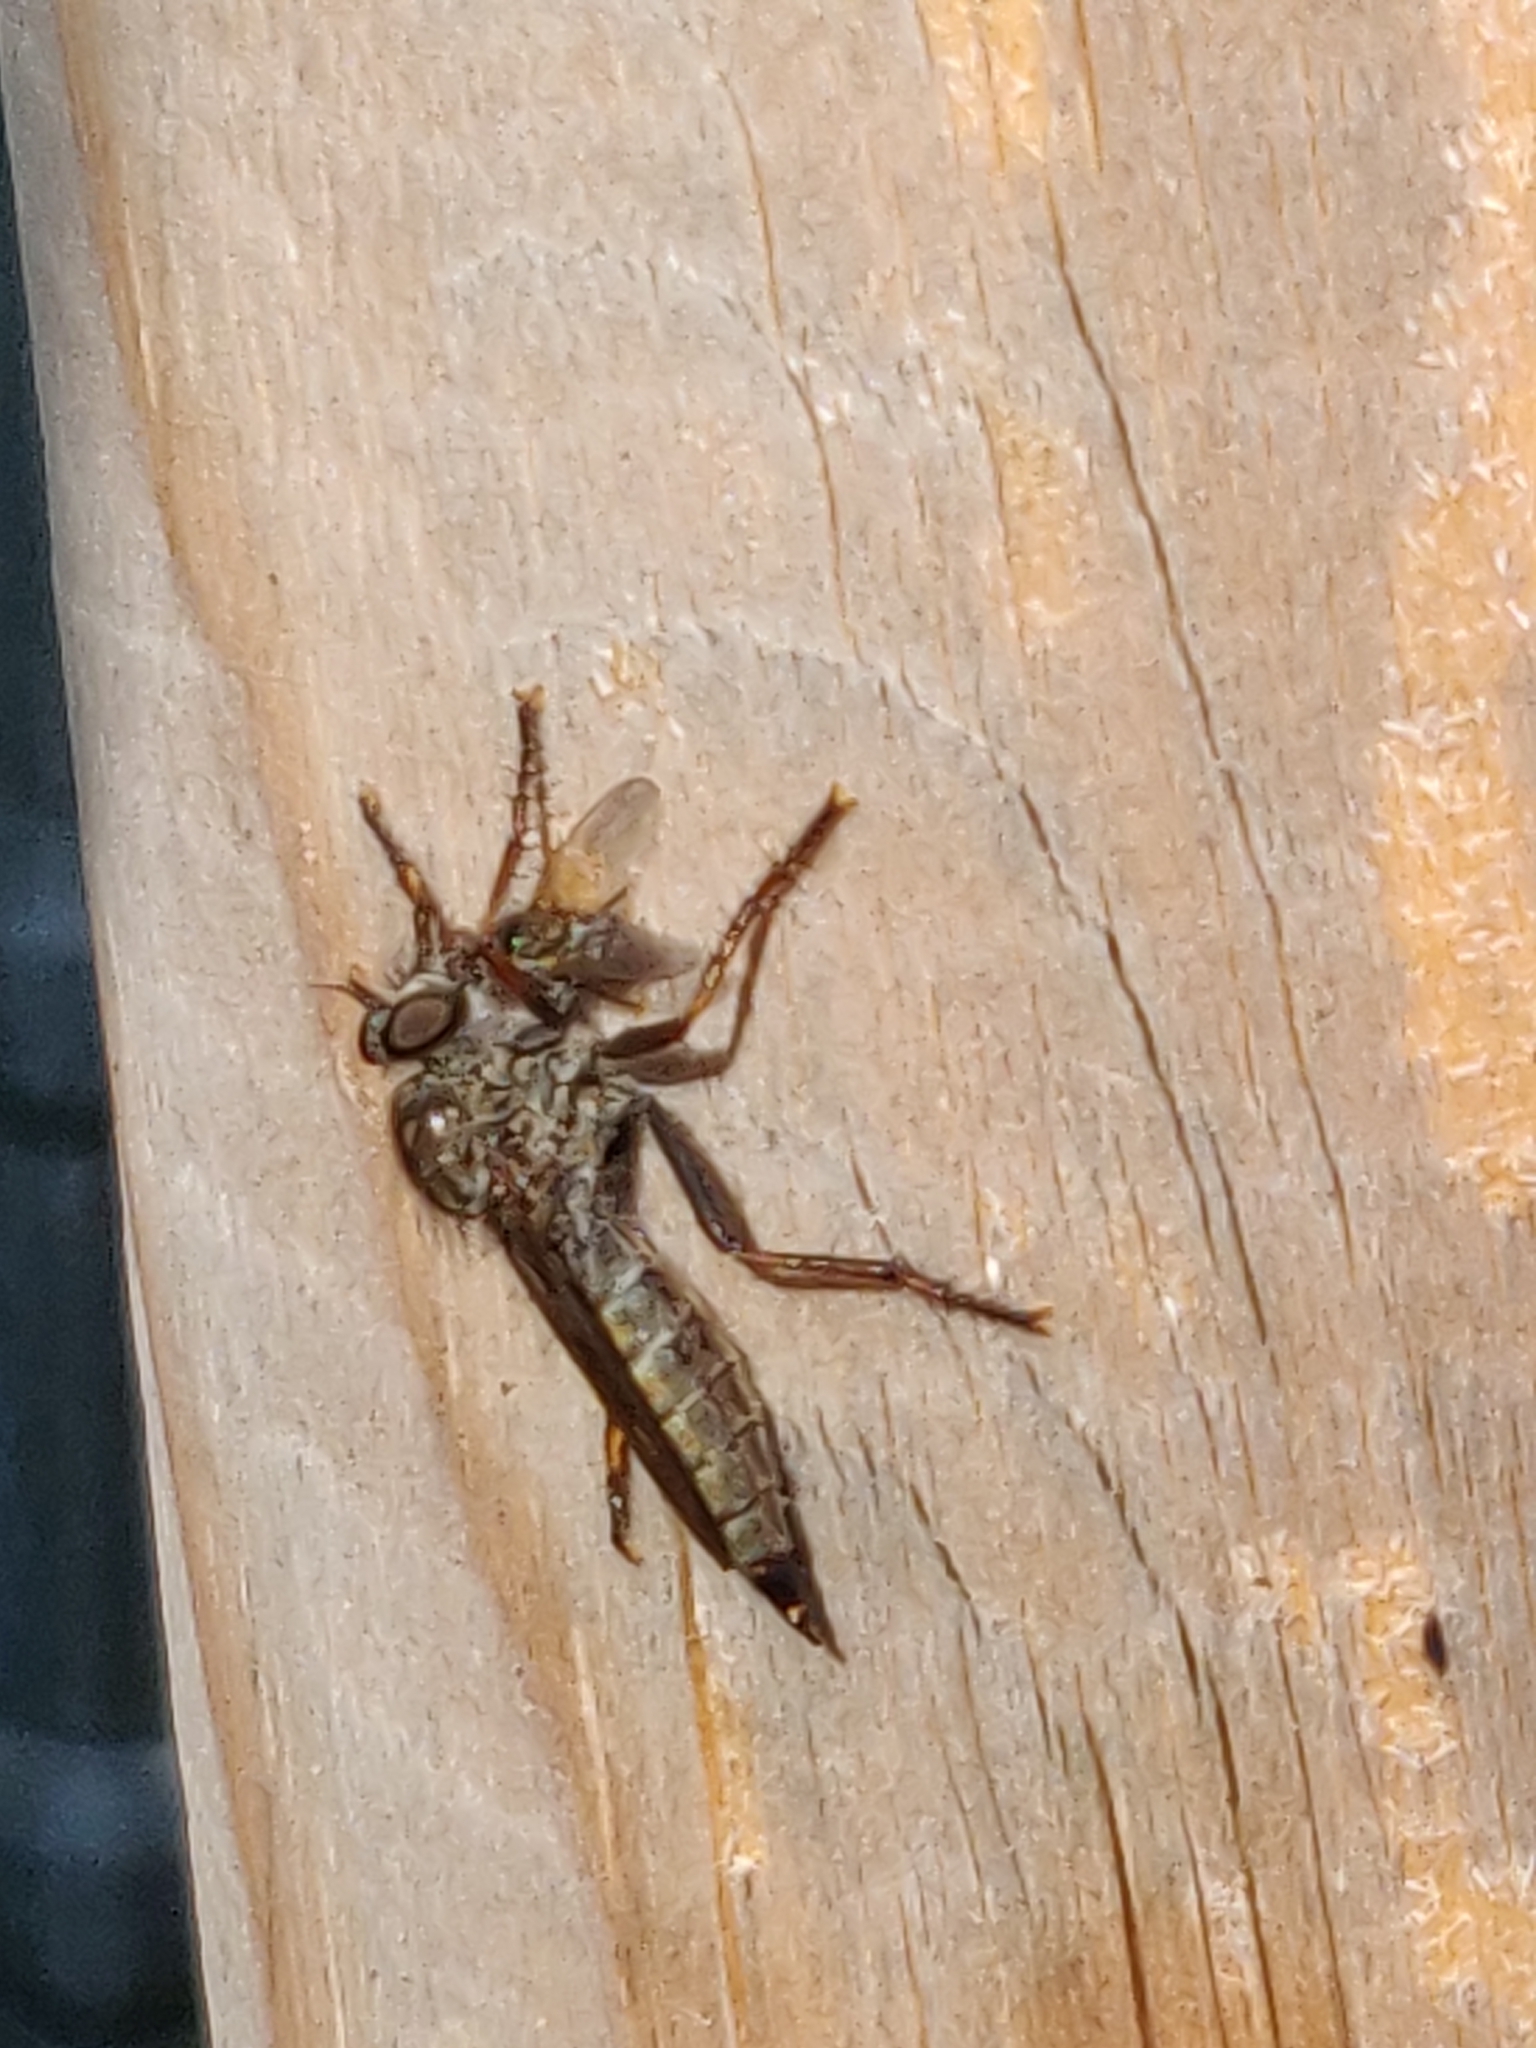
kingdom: Animalia
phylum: Arthropoda
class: Insecta
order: Diptera
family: Asilidae
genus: Machimus
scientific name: Machimus atricapillus
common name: Kite-tailed robberfly
